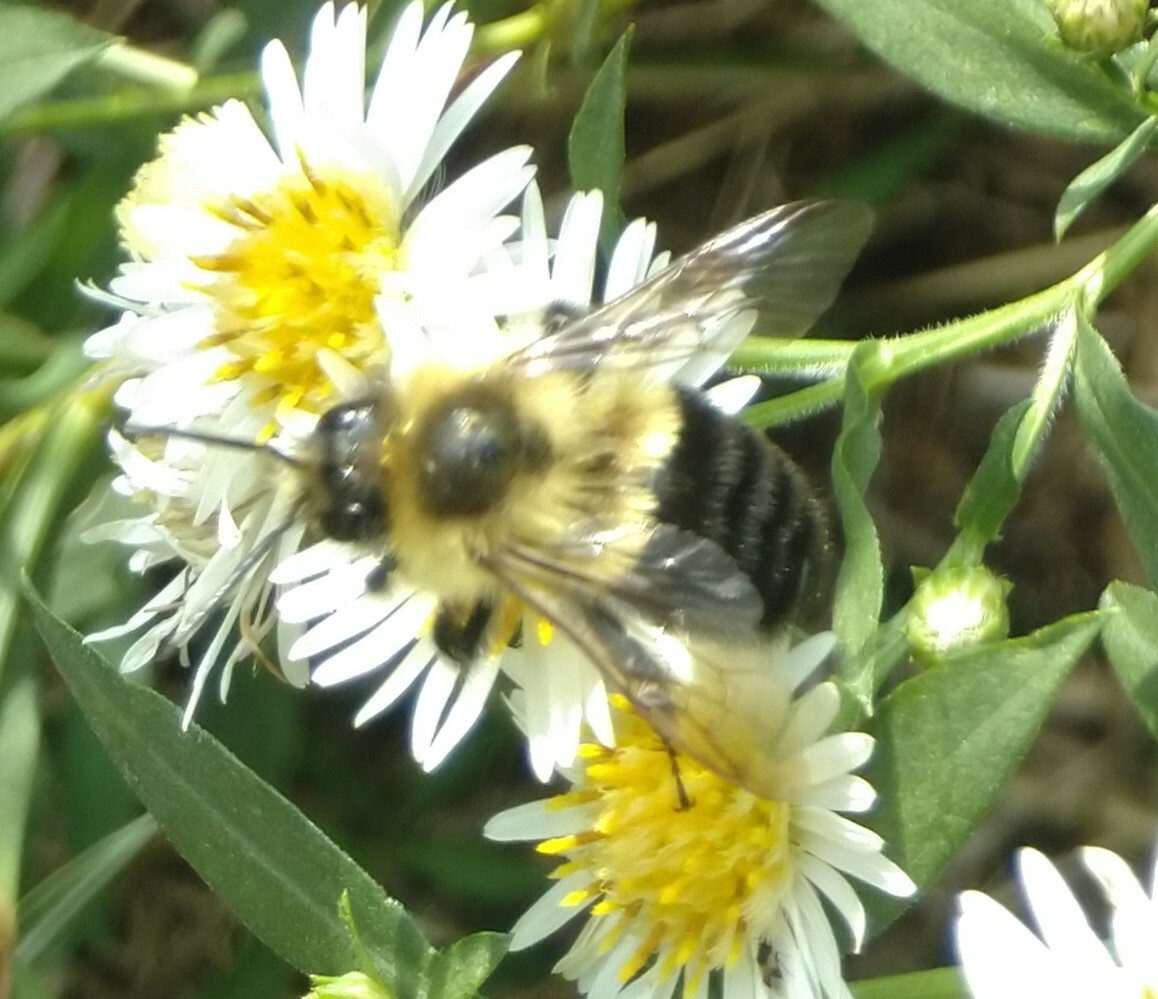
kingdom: Animalia
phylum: Arthropoda
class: Insecta
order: Hymenoptera
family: Apidae
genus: Bombus
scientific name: Bombus impatiens
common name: Common eastern bumble bee
